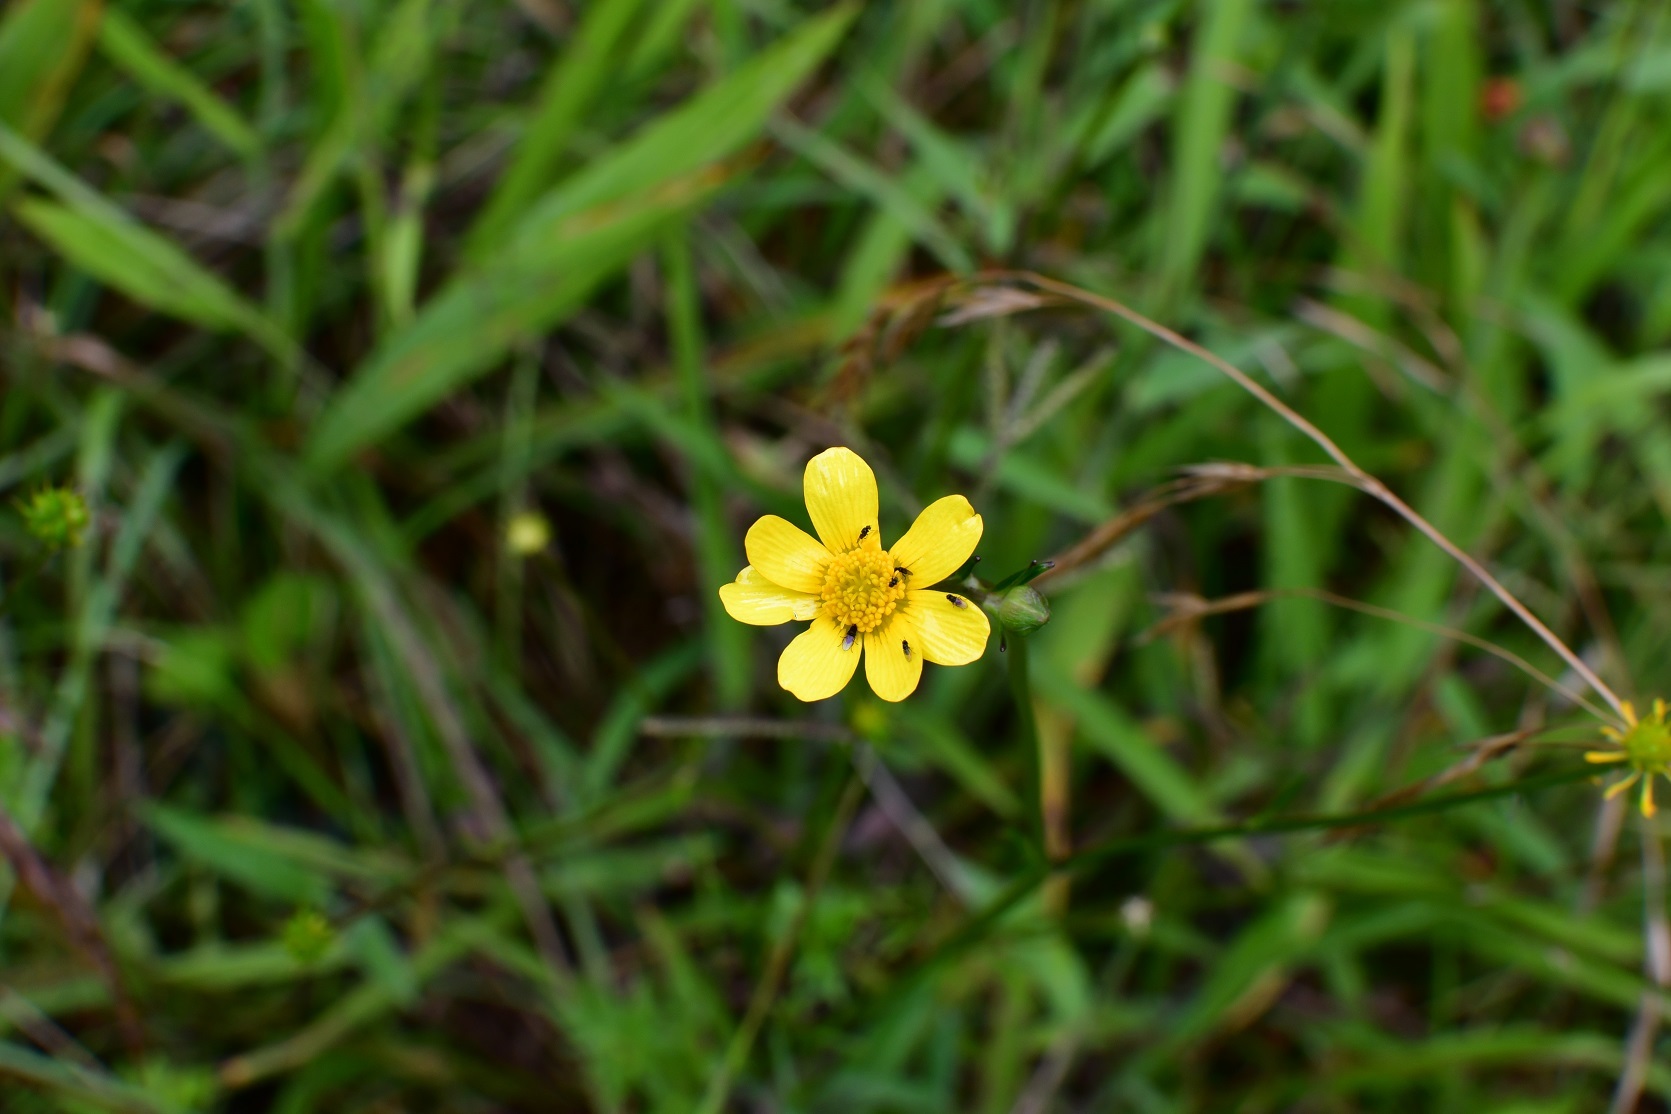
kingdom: Plantae
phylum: Tracheophyta
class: Magnoliopsida
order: Ranunculales
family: Ranunculaceae
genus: Ranunculus
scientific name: Ranunculus petiolaris
